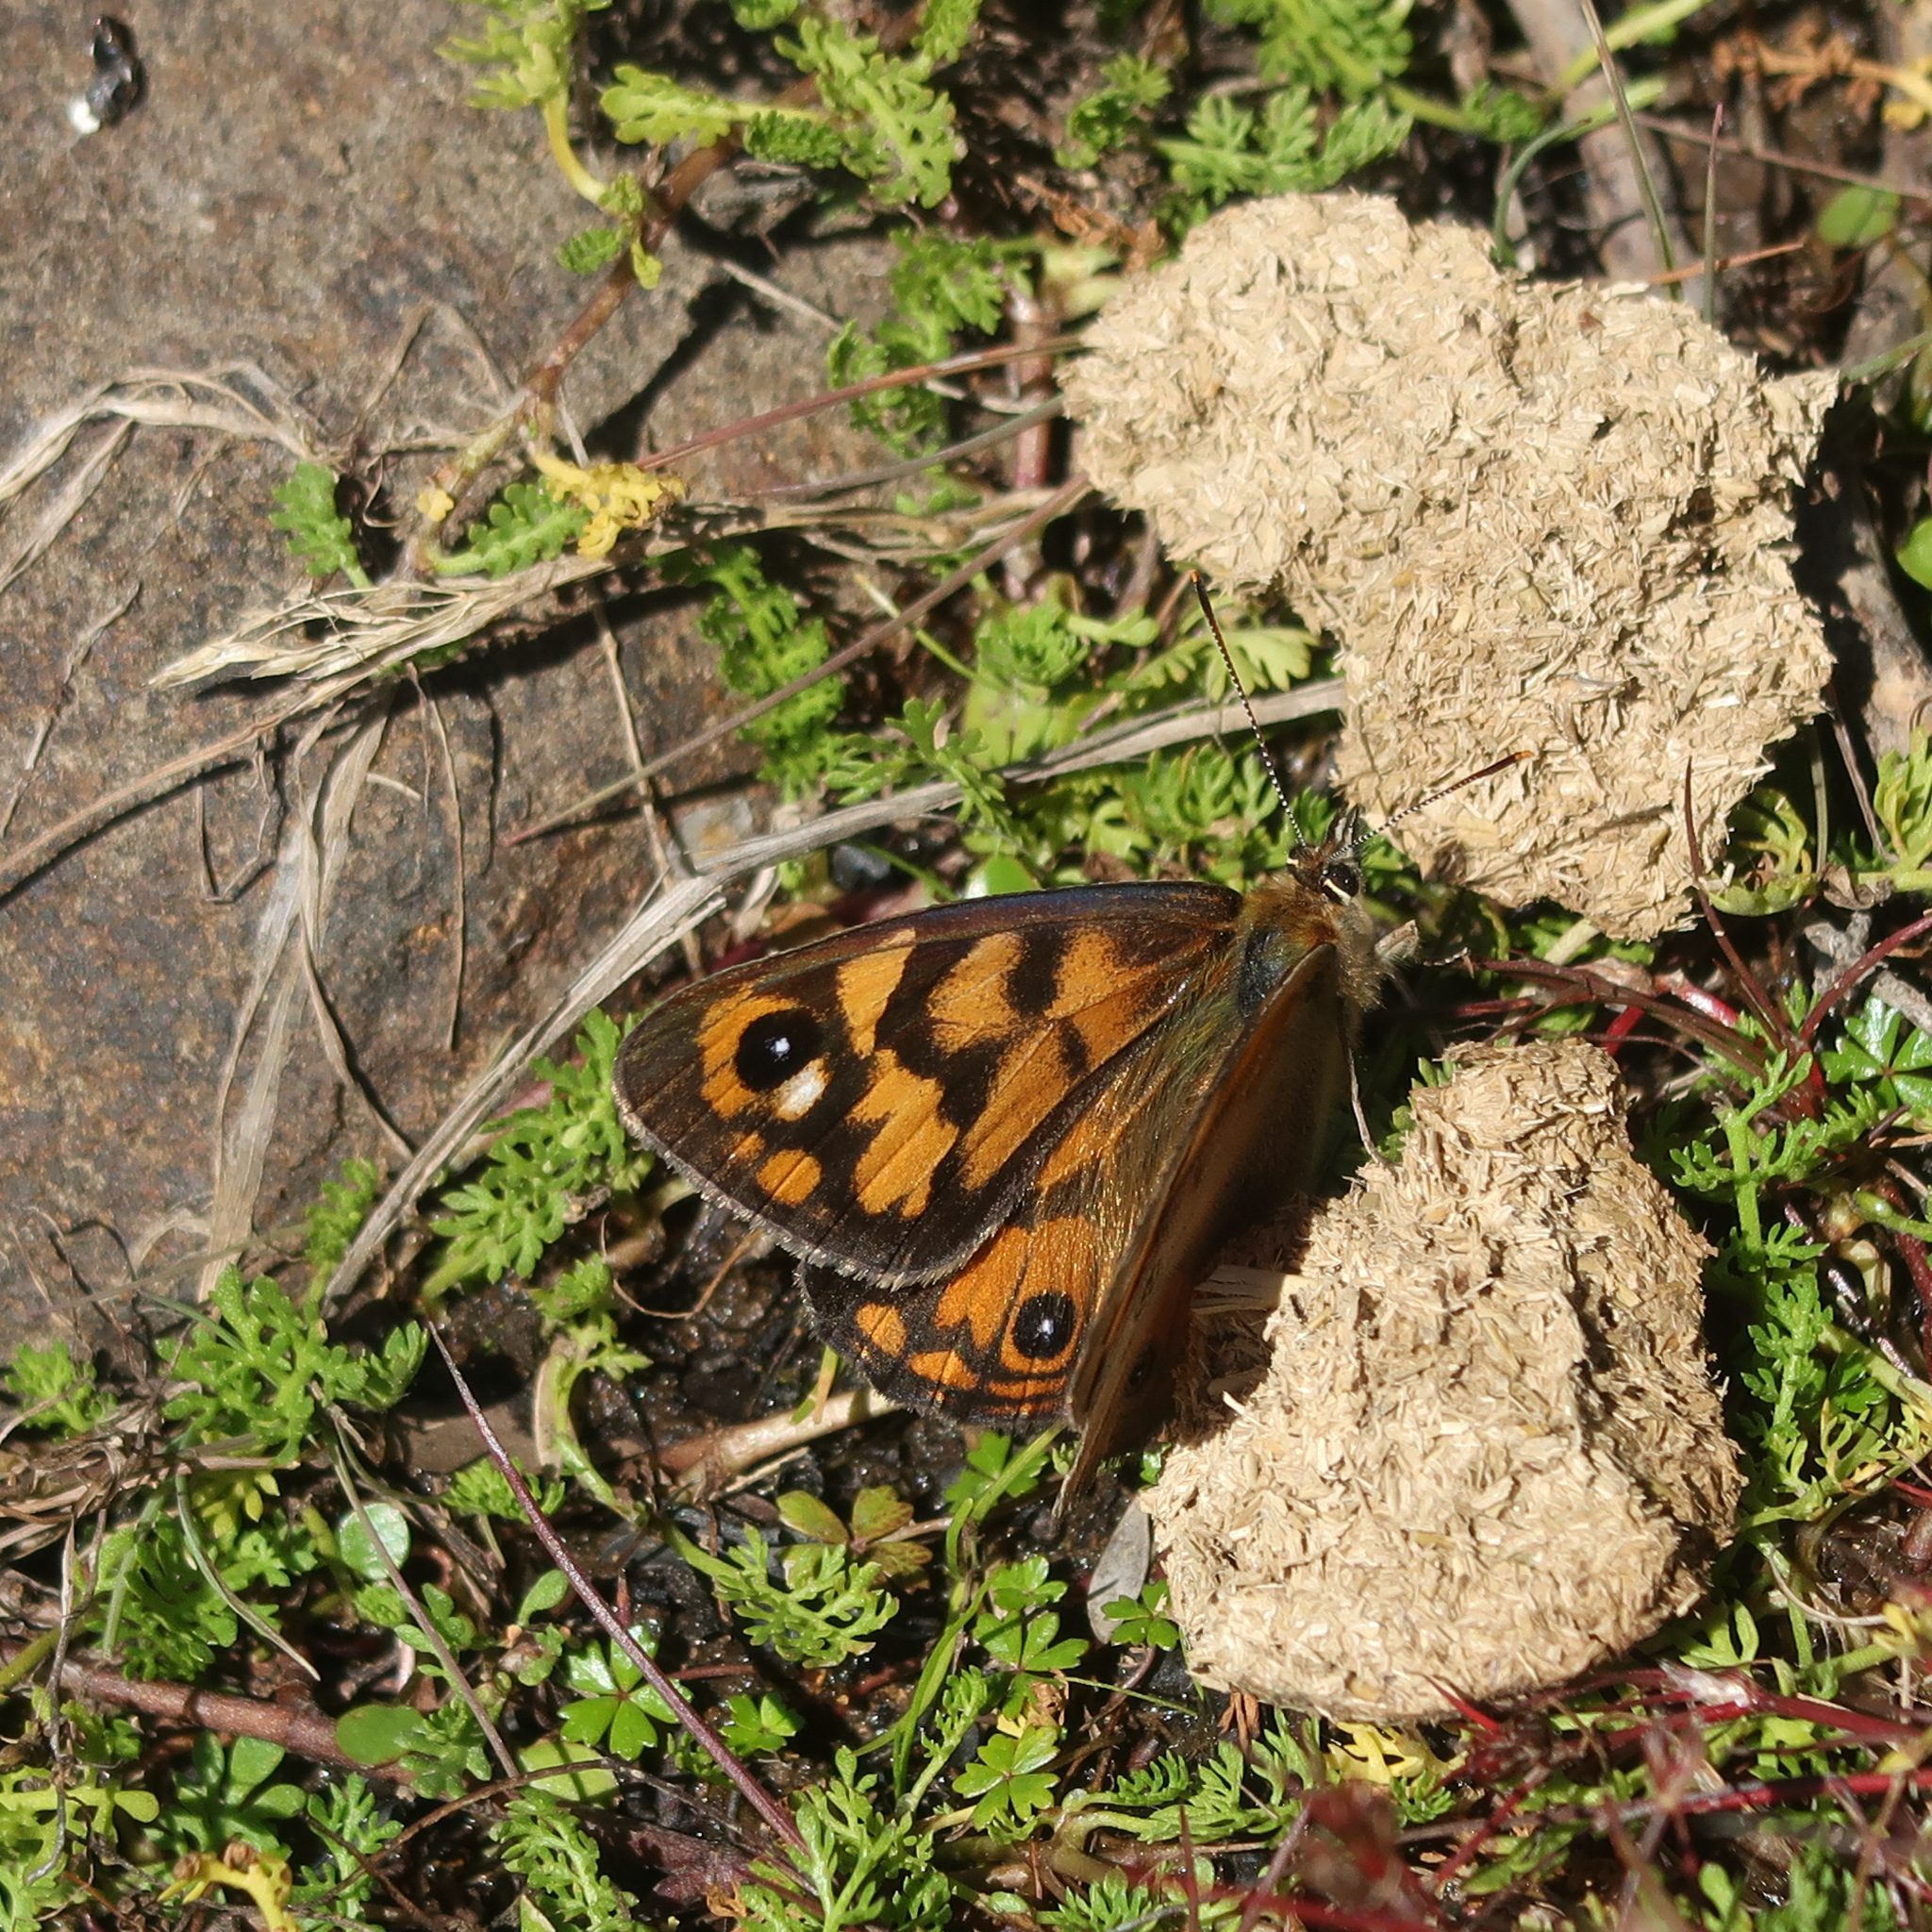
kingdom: Animalia
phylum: Arthropoda
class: Insecta
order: Lepidoptera
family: Nymphalidae
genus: Heteronympha
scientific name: Heteronympha penelope
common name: Shouldered brown
